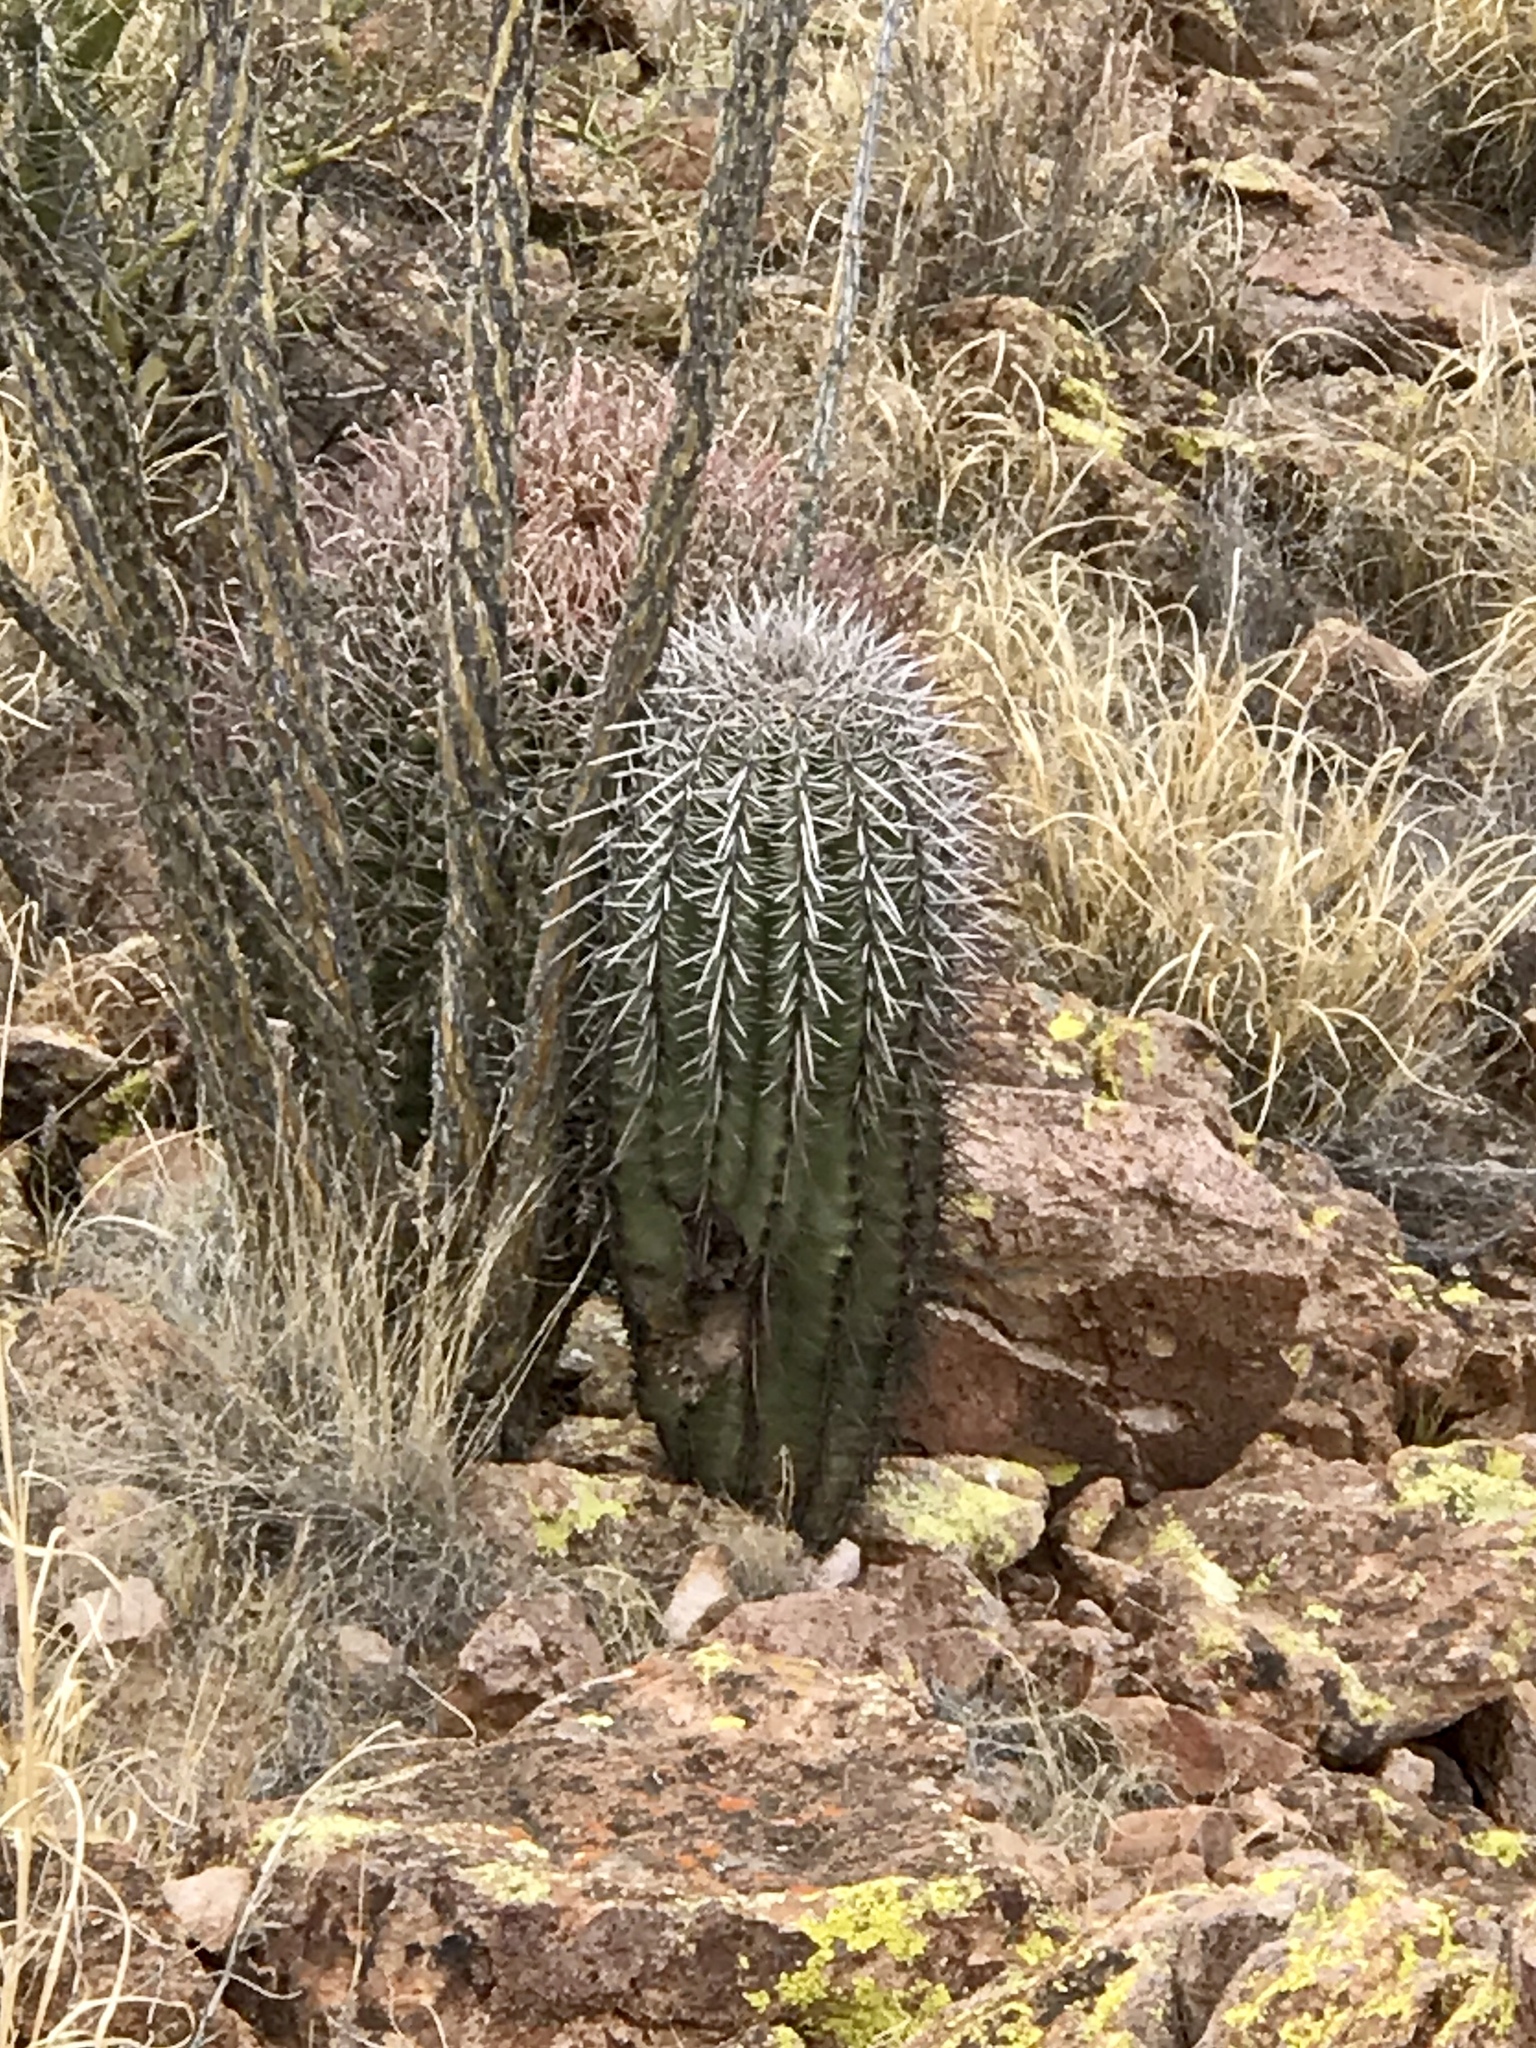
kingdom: Plantae
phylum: Tracheophyta
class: Magnoliopsida
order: Caryophyllales
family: Cactaceae
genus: Carnegiea
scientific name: Carnegiea gigantea
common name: Saguaro
